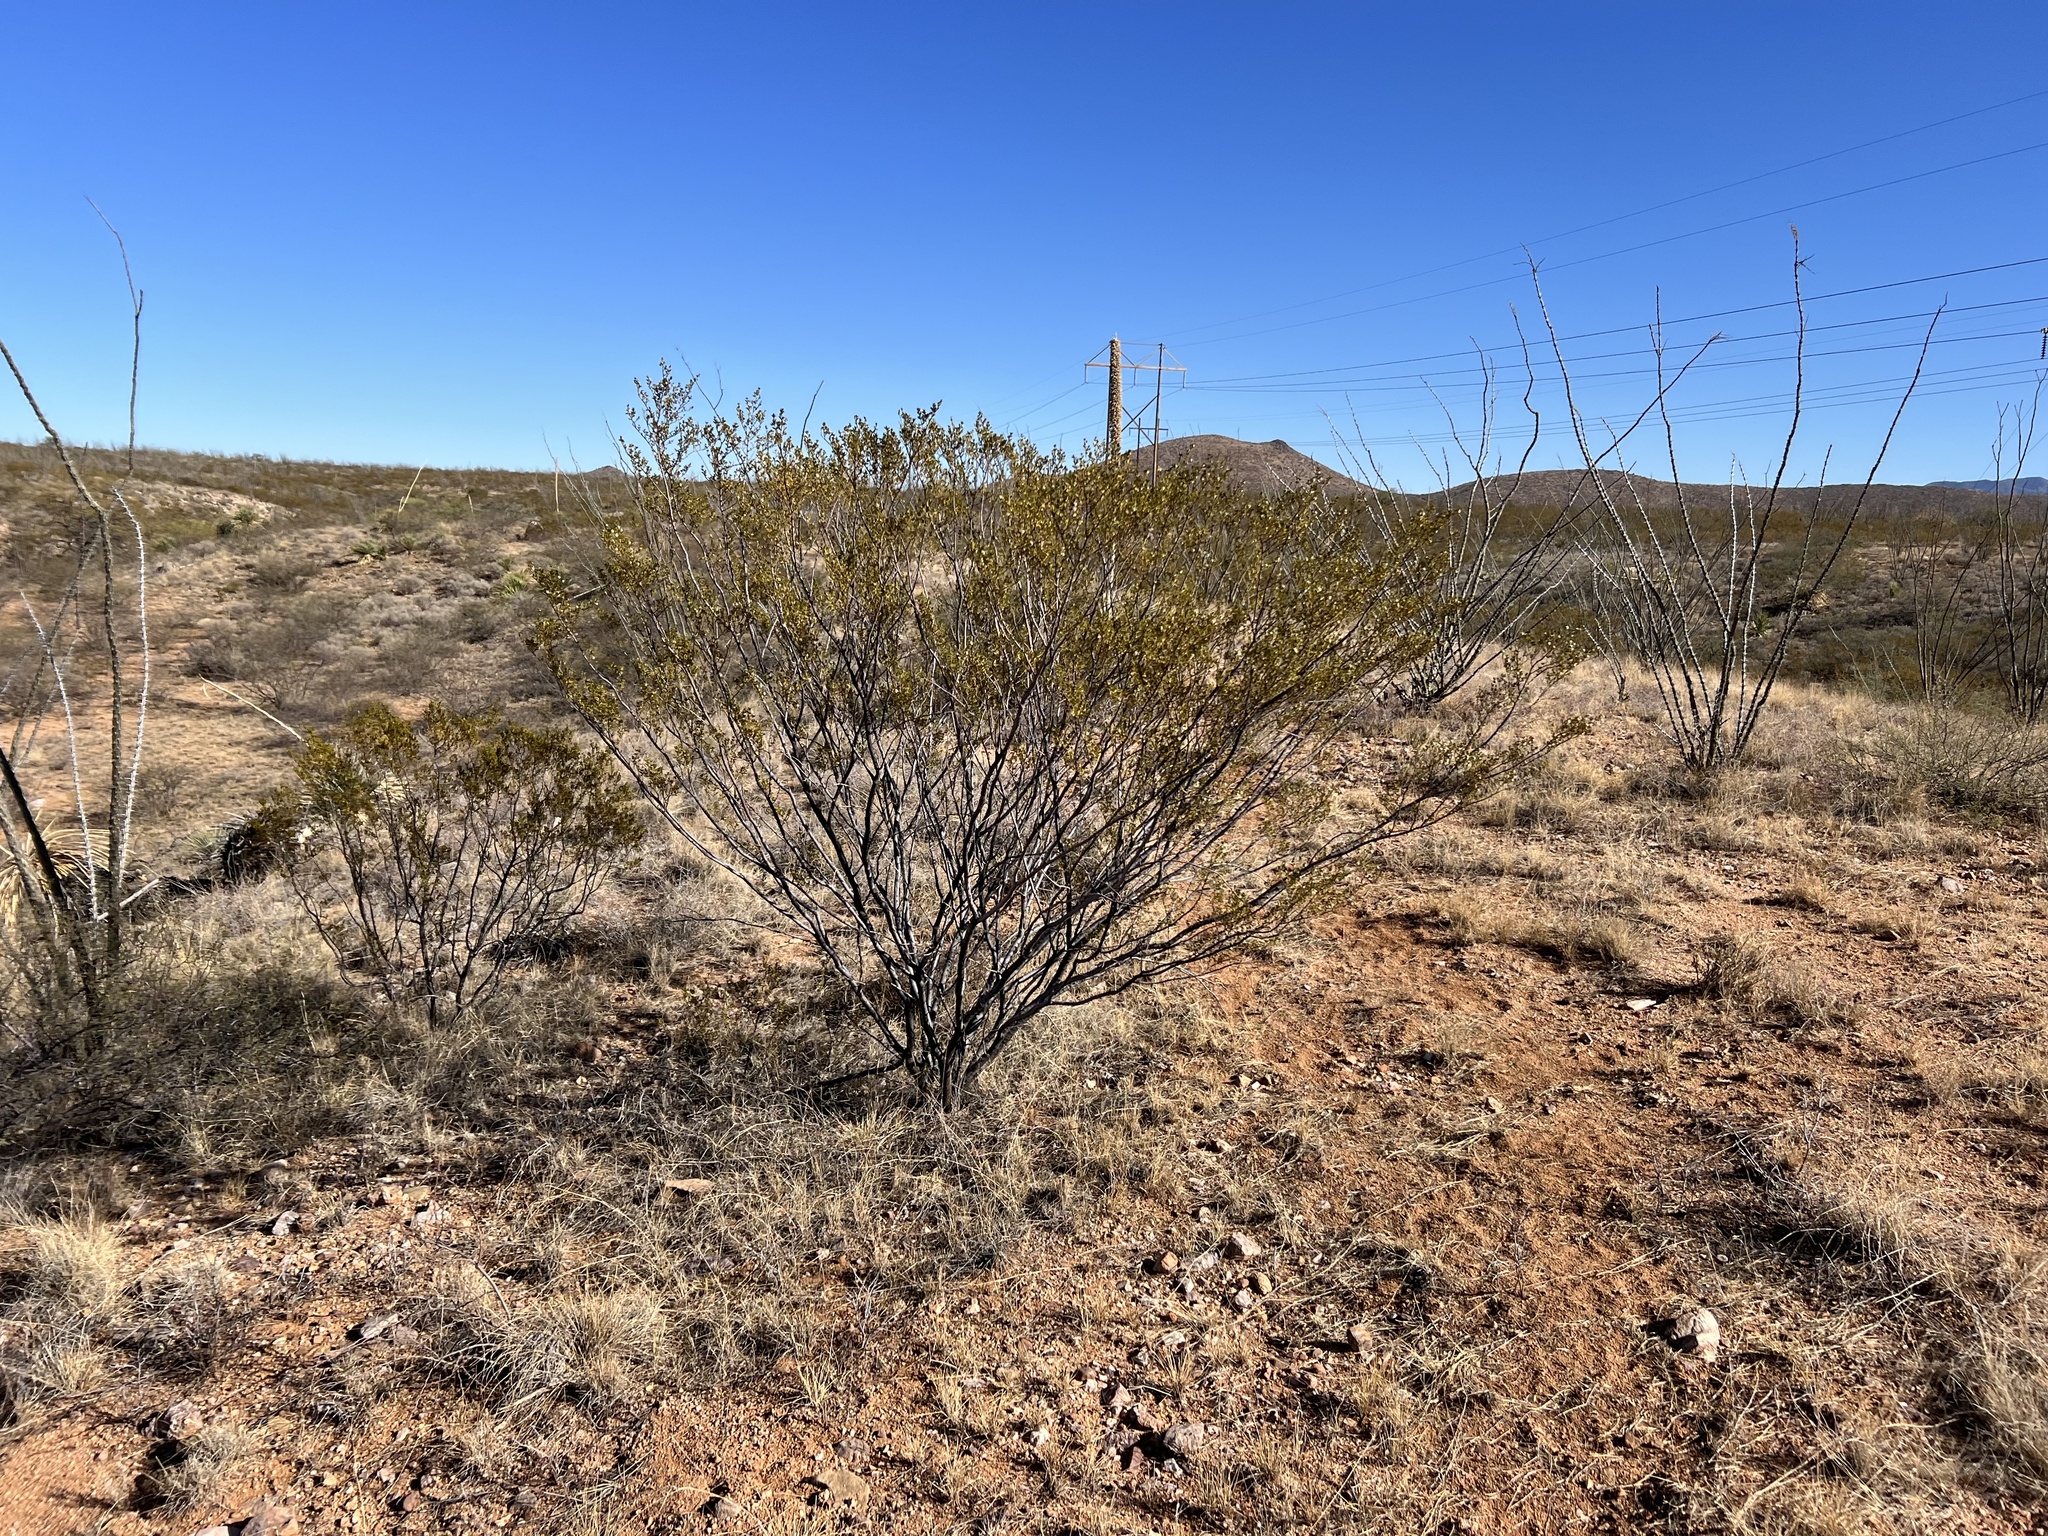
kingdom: Plantae
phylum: Tracheophyta
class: Magnoliopsida
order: Zygophyllales
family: Zygophyllaceae
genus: Larrea
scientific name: Larrea tridentata
